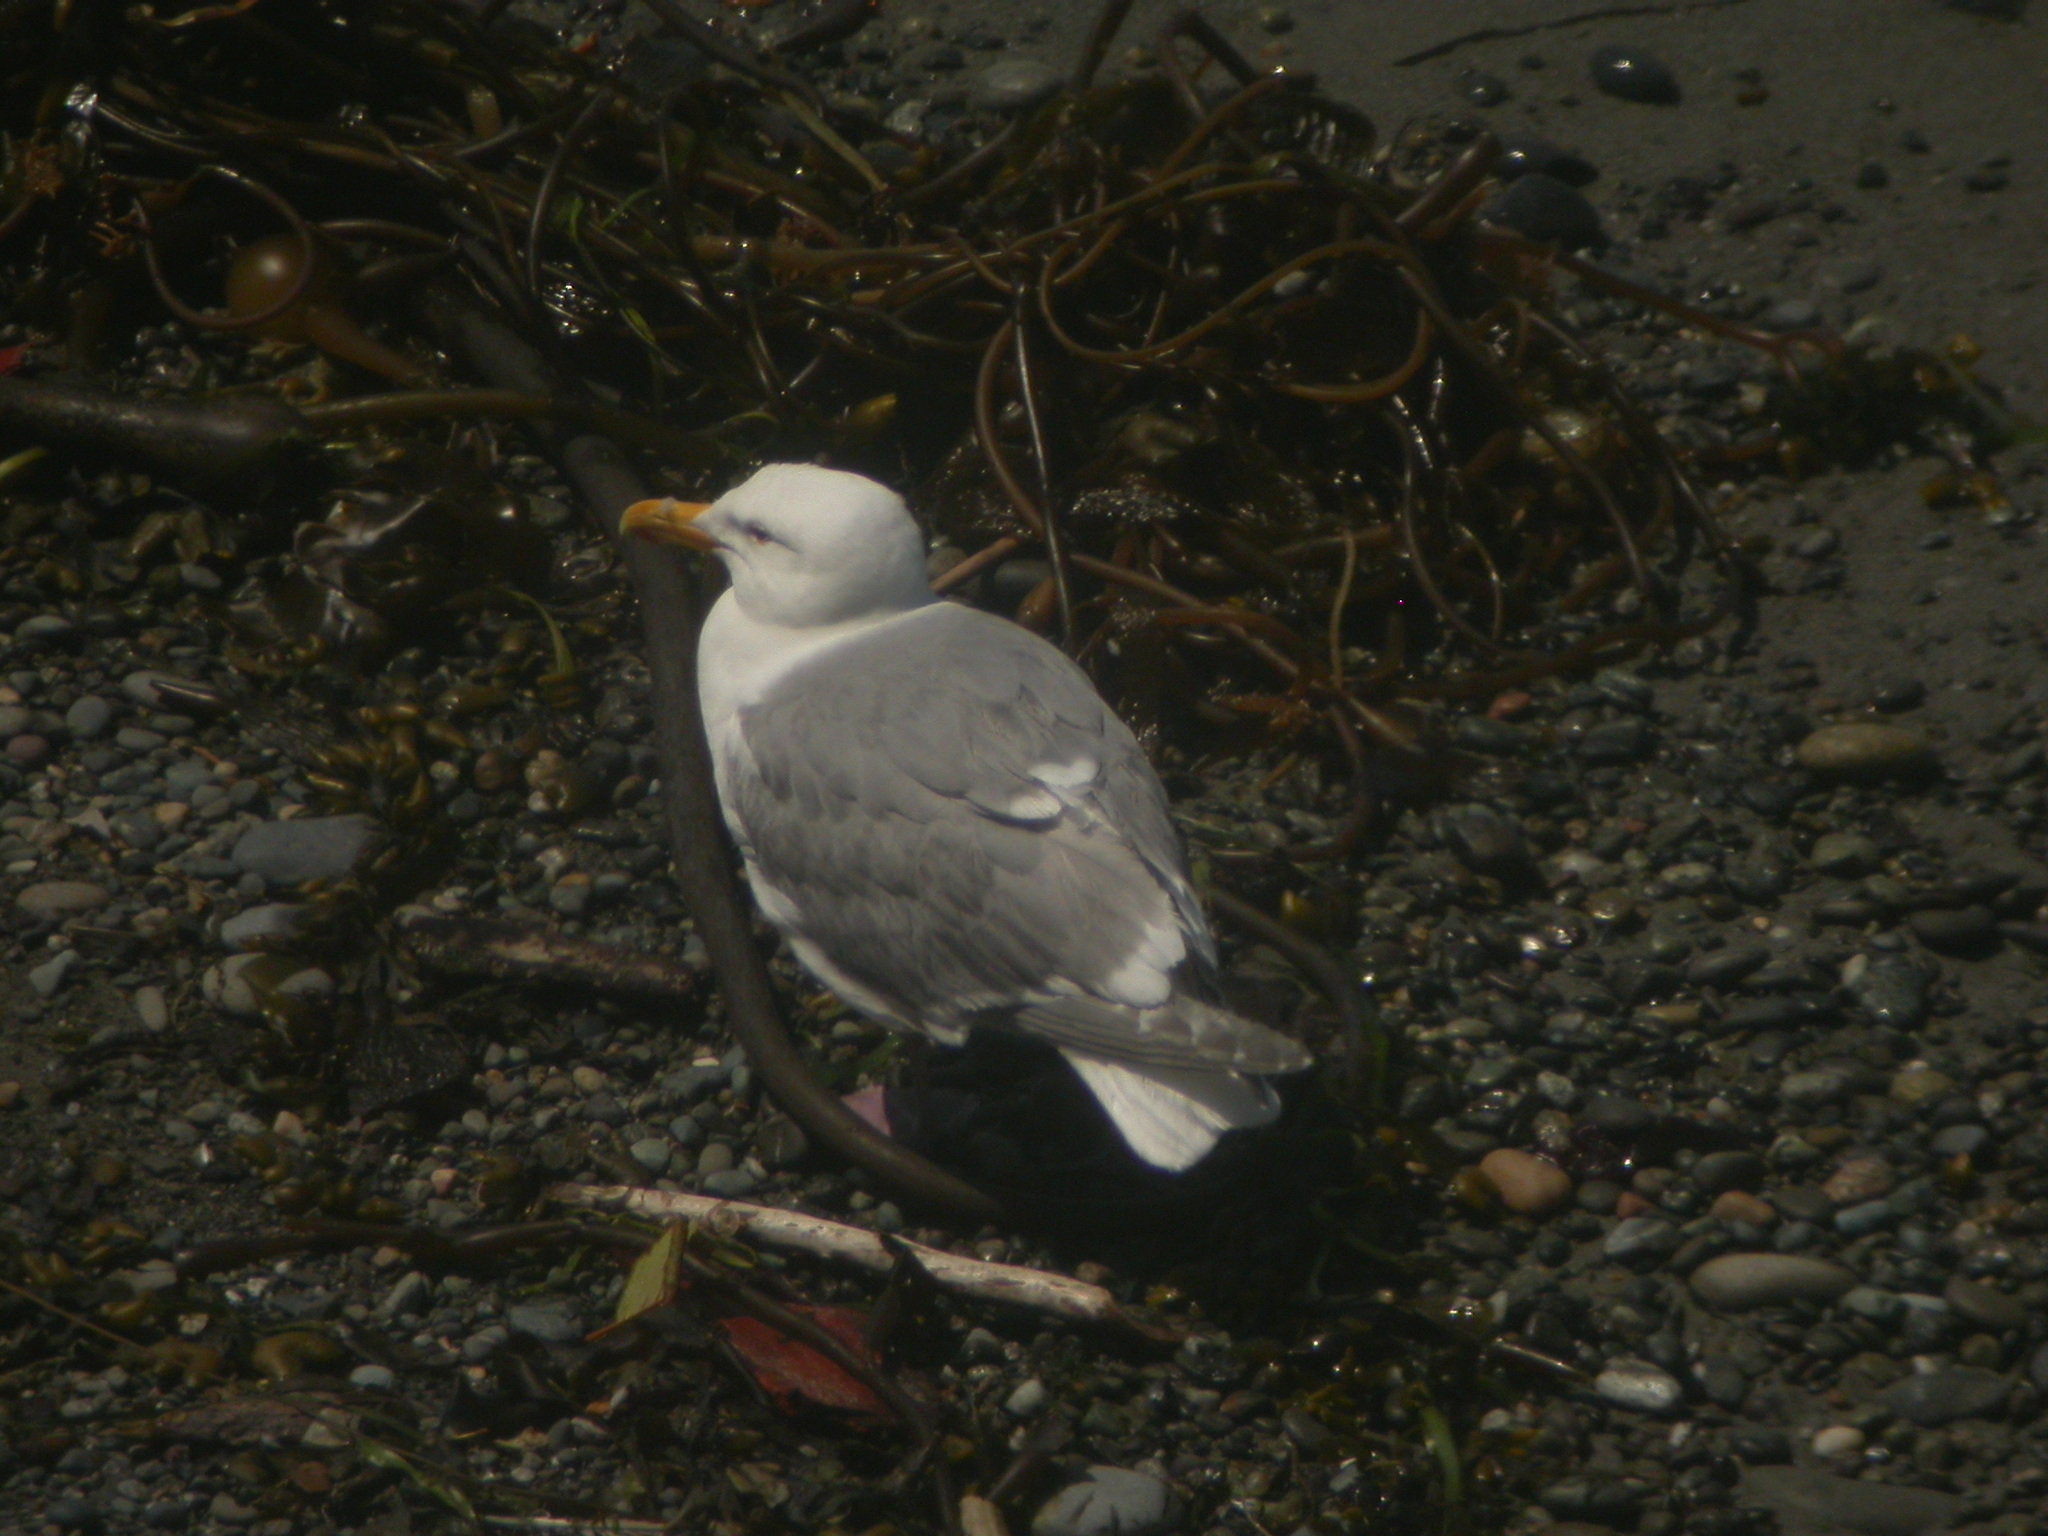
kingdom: Animalia
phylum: Chordata
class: Aves
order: Charadriiformes
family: Laridae
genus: Larus
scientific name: Larus glaucescens
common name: Glaucous-winged gull
